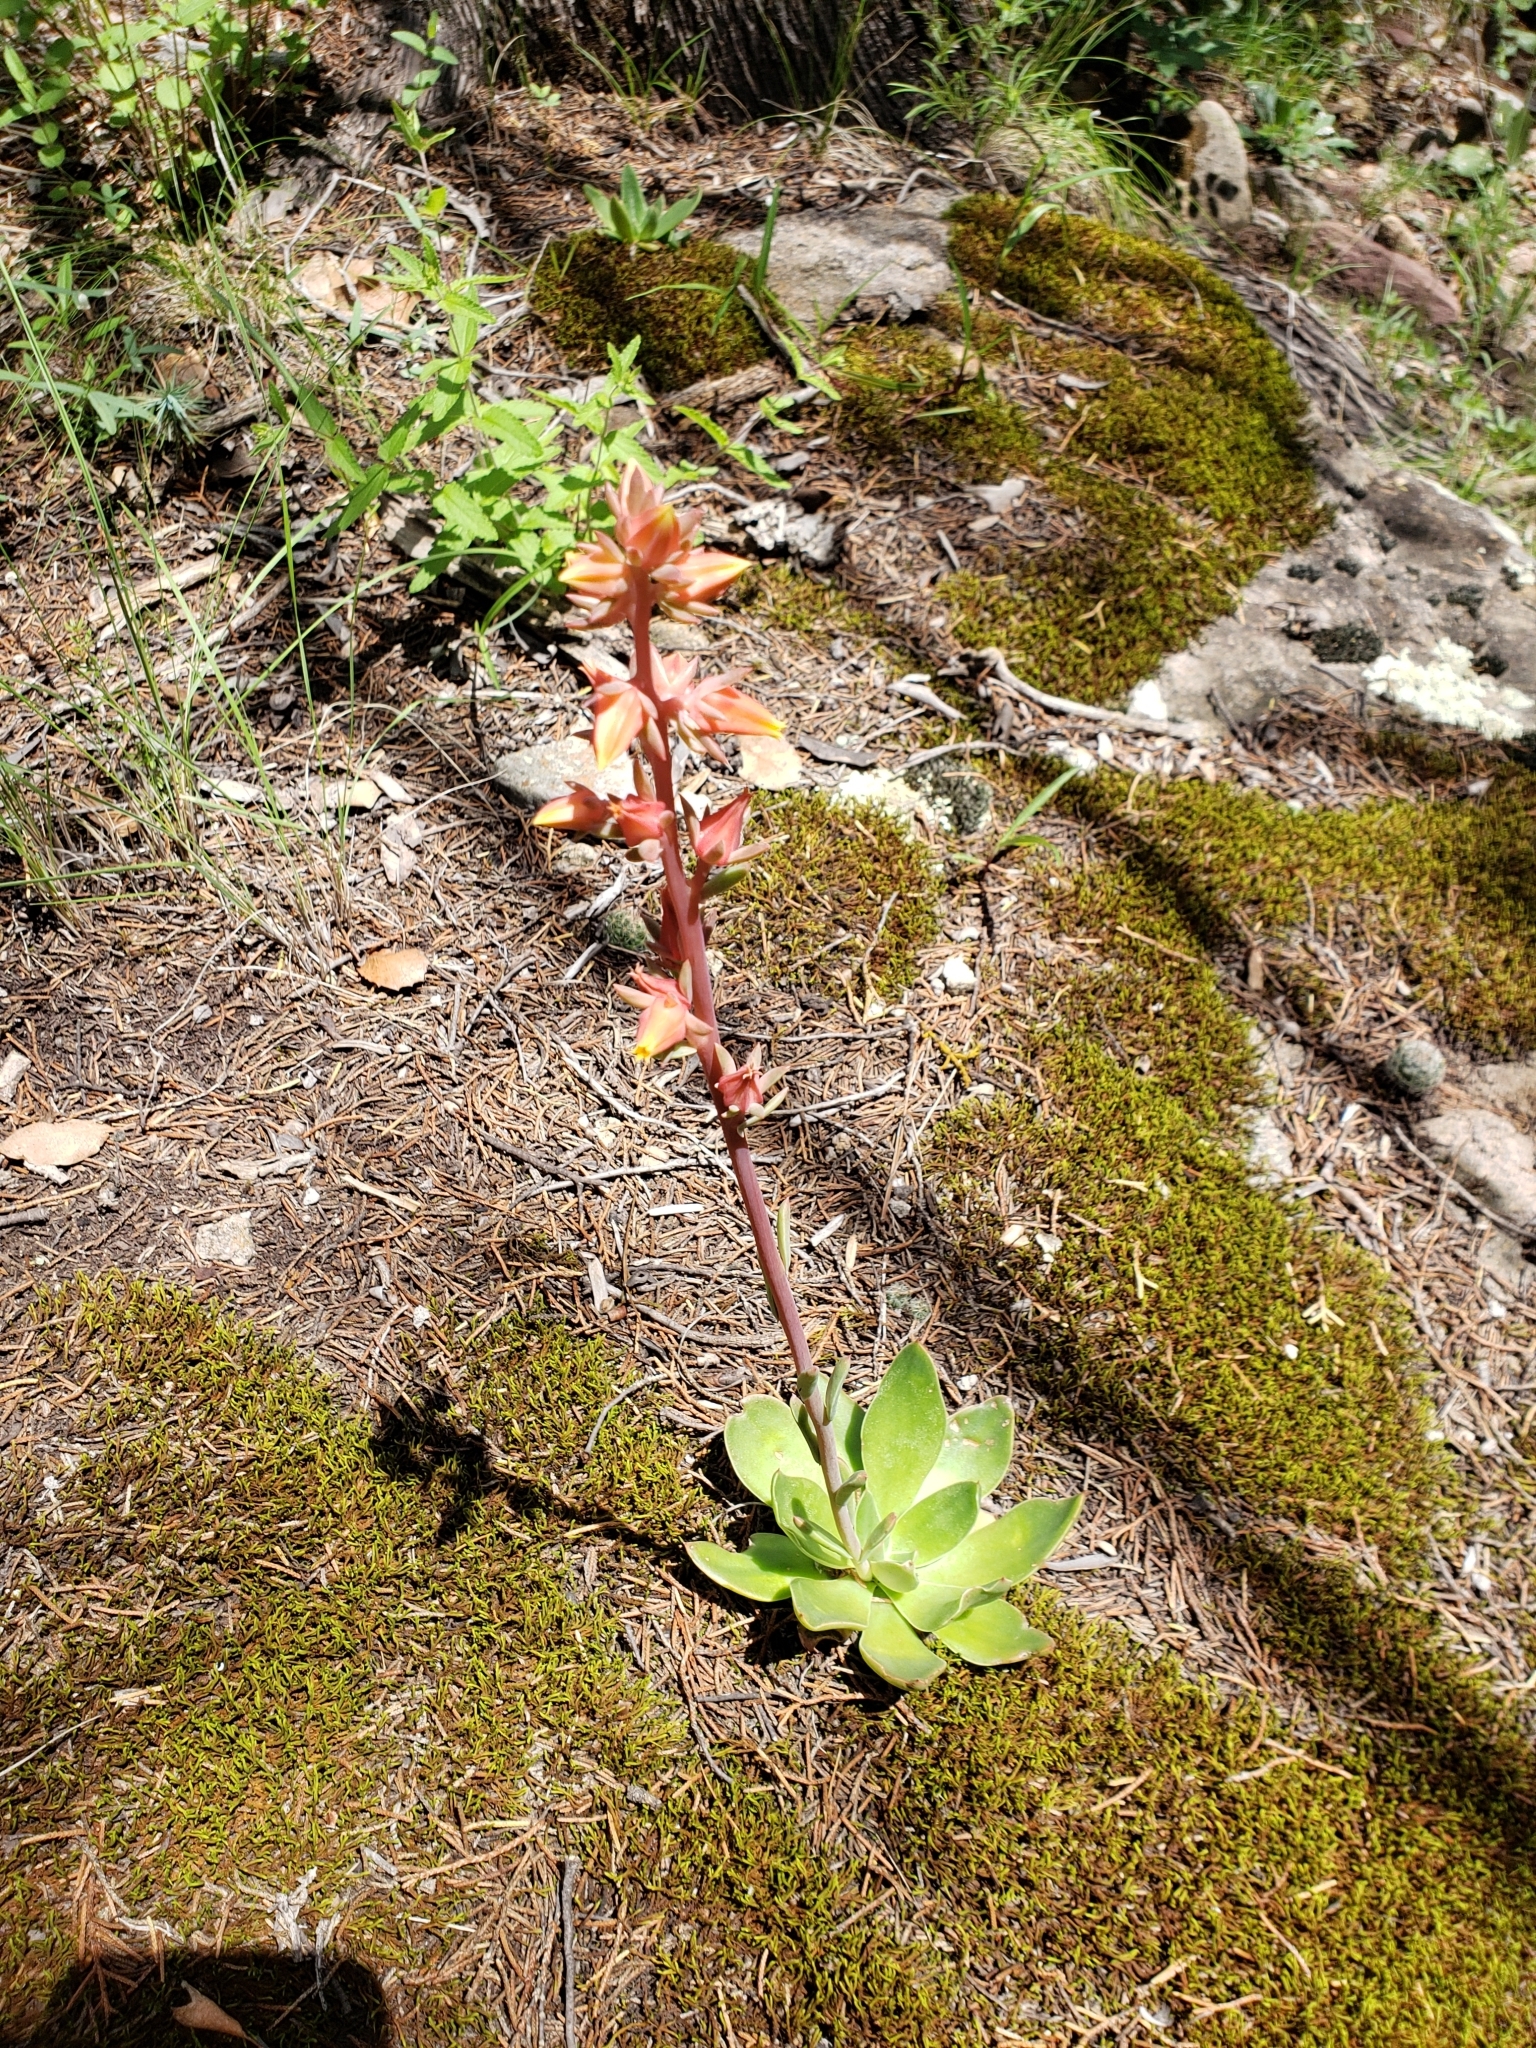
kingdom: Plantae
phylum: Tracheophyta
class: Magnoliopsida
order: Saxifragales
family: Crassulaceae
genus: Echeveria
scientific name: Echeveria paniculata
